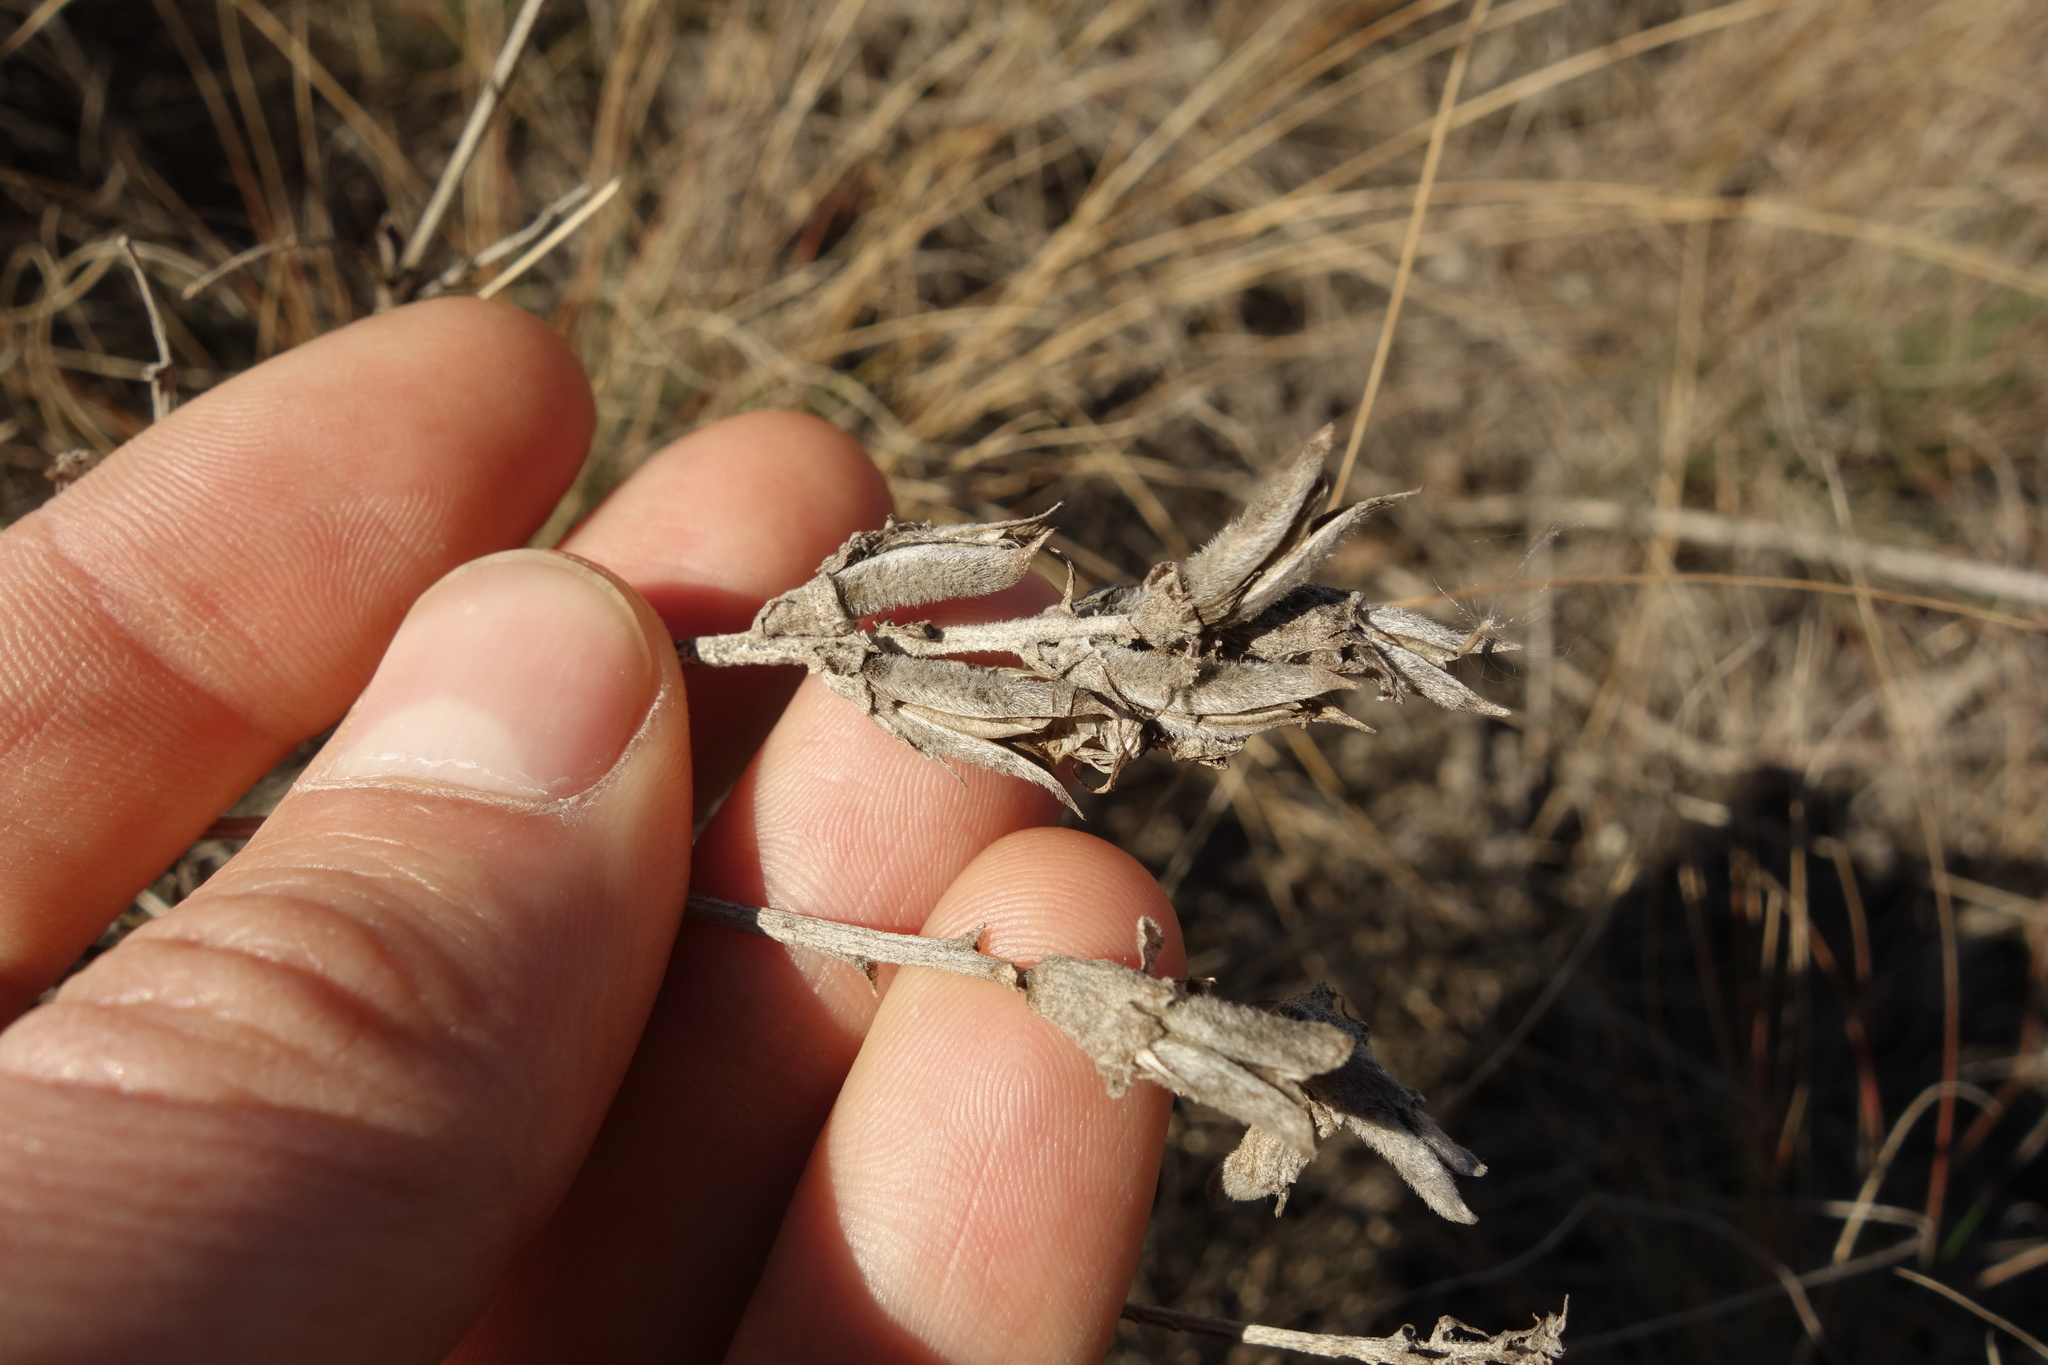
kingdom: Plantae
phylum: Tracheophyta
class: Magnoliopsida
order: Fabales
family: Fabaceae
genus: Astragalus
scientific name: Astragalus albicaulis
